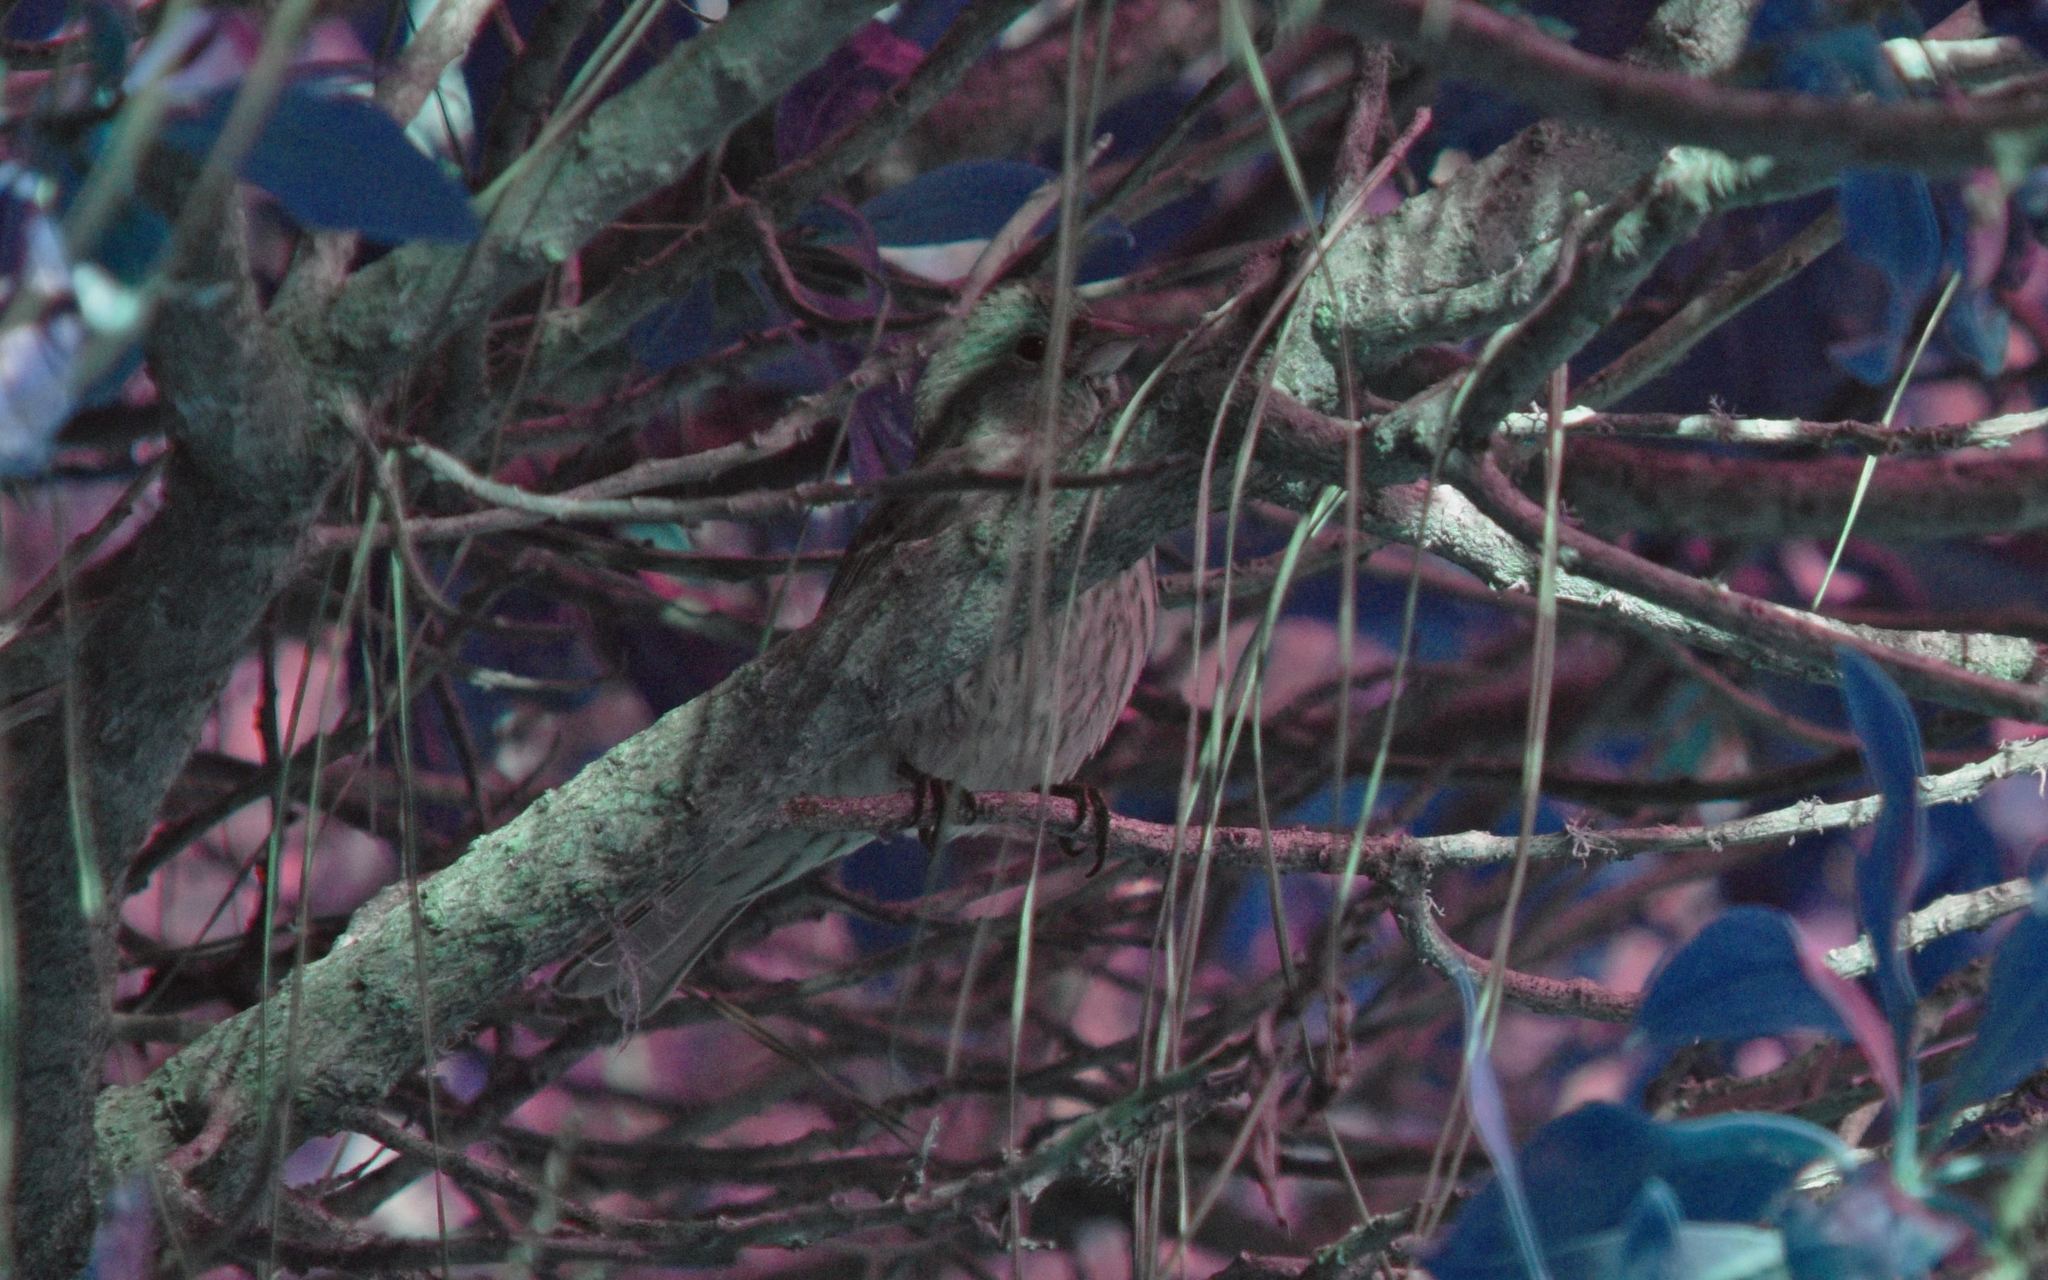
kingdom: Animalia
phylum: Chordata
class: Aves
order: Passeriformes
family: Fringillidae
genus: Haemorhous
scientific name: Haemorhous mexicanus
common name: House finch
